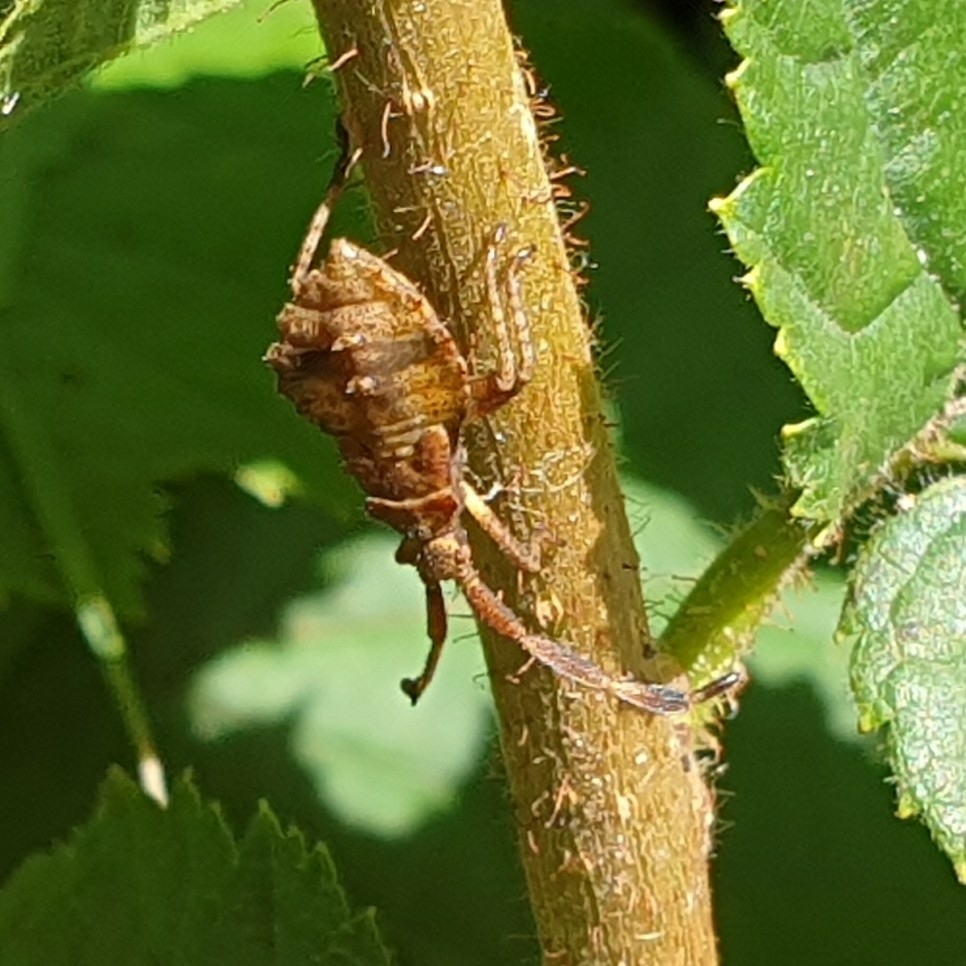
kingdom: Animalia
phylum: Arthropoda
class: Insecta
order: Hemiptera
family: Coreidae
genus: Coreus
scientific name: Coreus marginatus
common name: Dock bug
